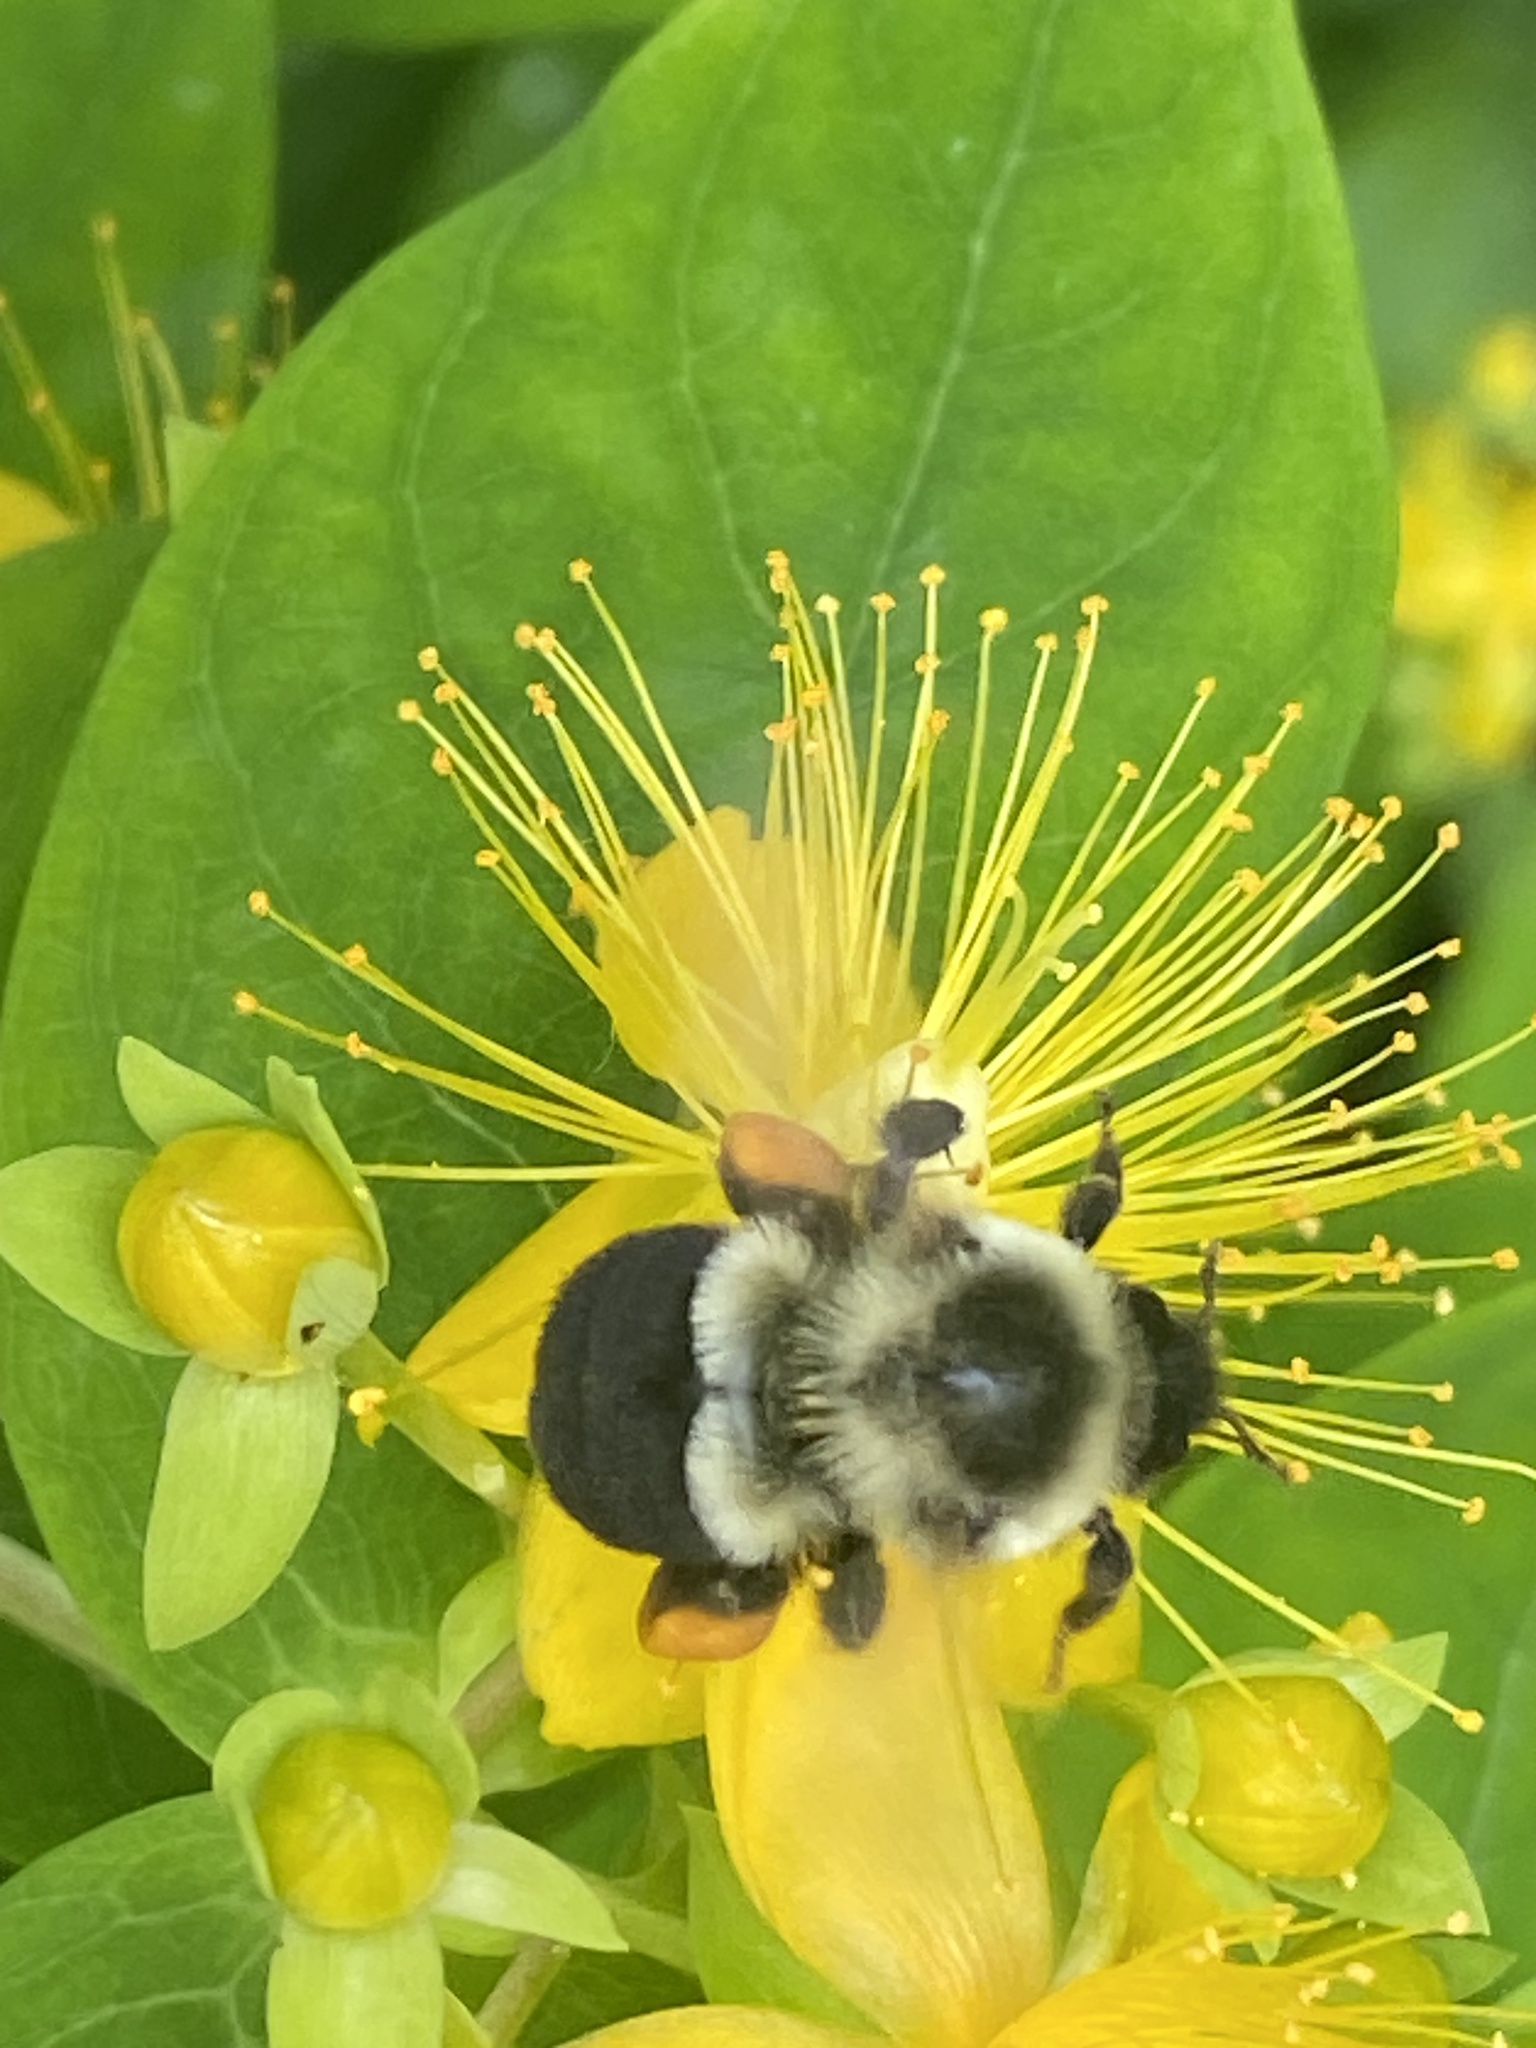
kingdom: Animalia
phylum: Arthropoda
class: Insecta
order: Hymenoptera
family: Apidae
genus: Bombus
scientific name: Bombus impatiens
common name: Common eastern bumble bee
